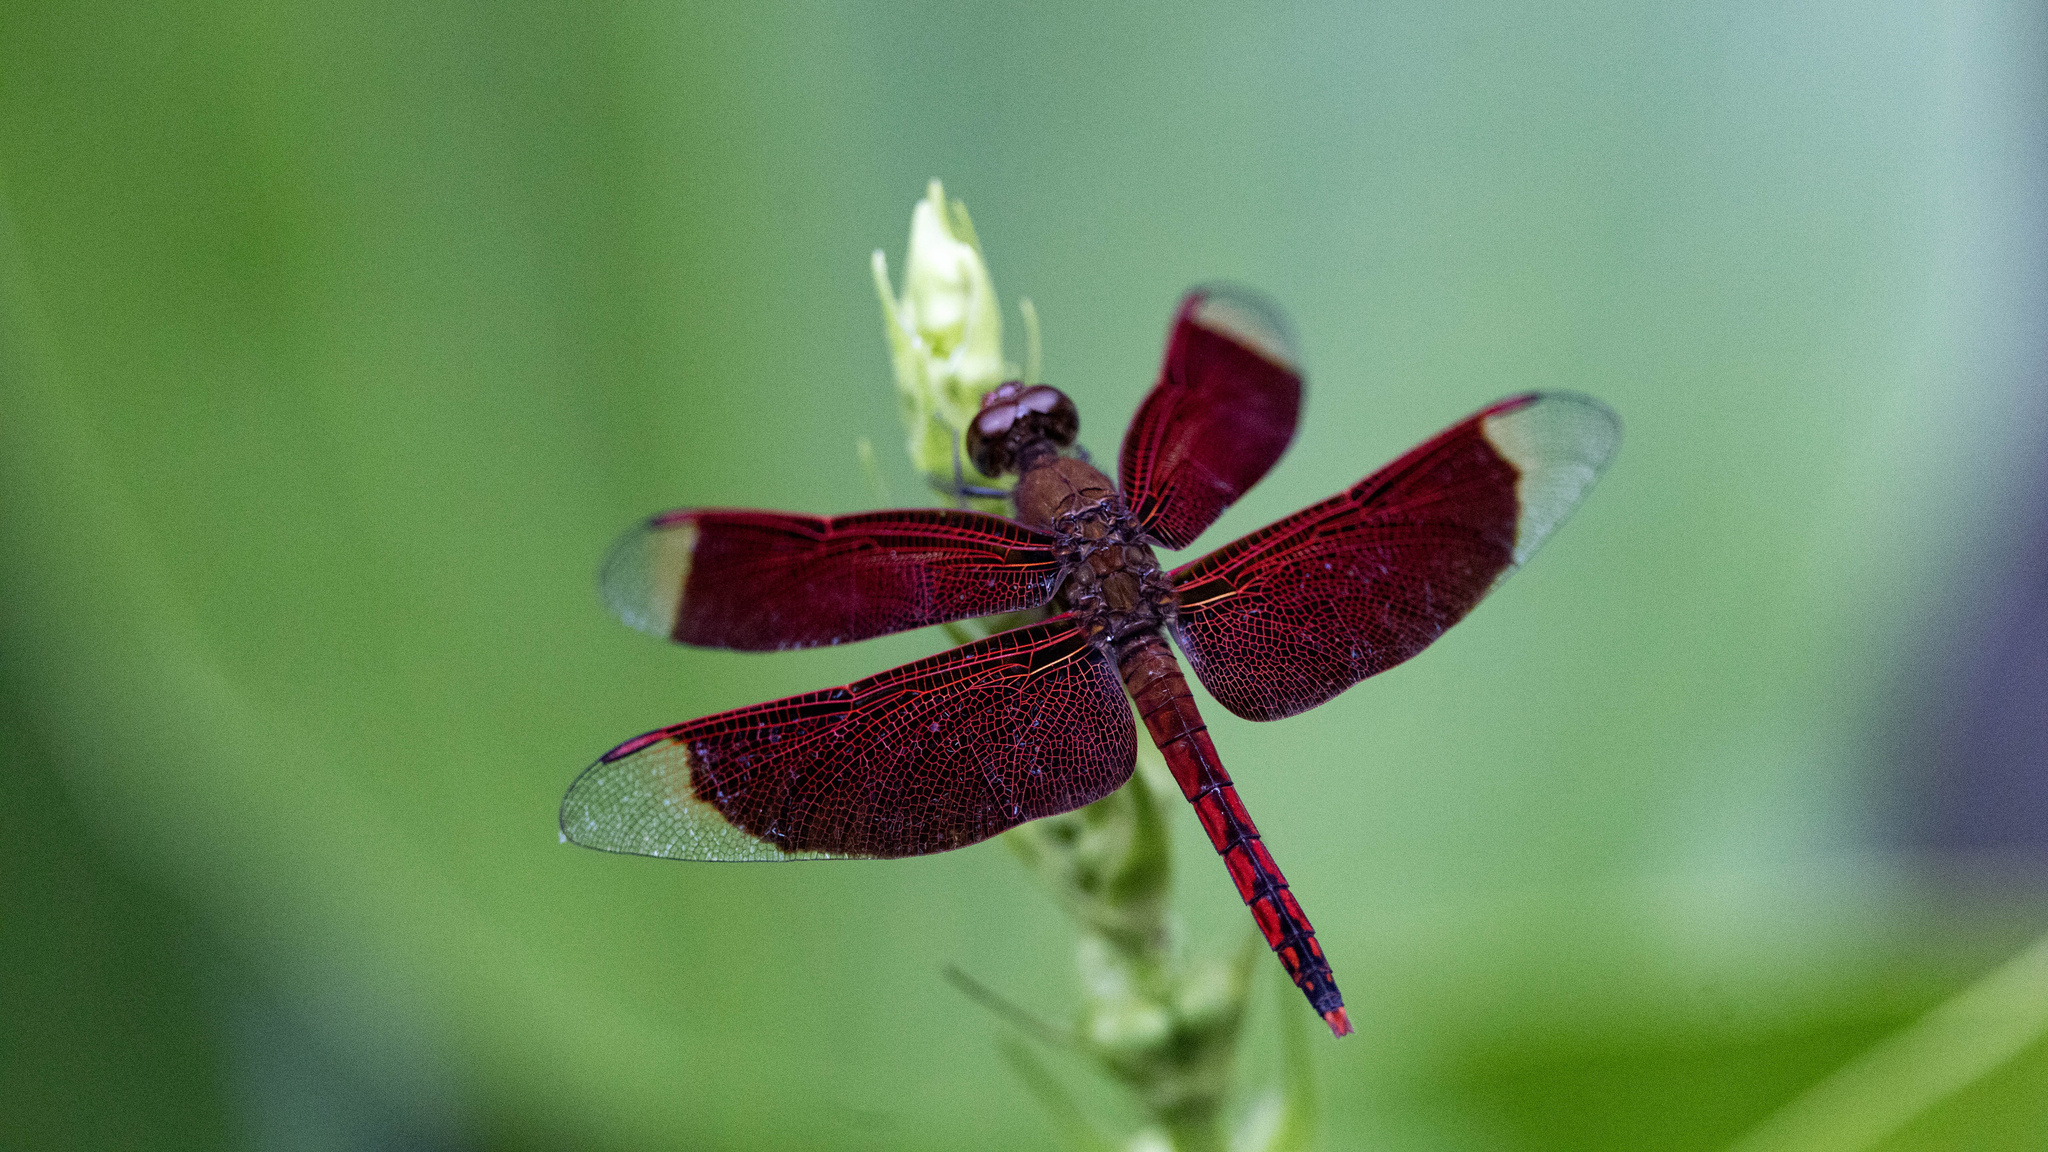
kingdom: Animalia
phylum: Arthropoda
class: Insecta
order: Odonata
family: Libellulidae
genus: Neurothemis
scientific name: Neurothemis ramburii
